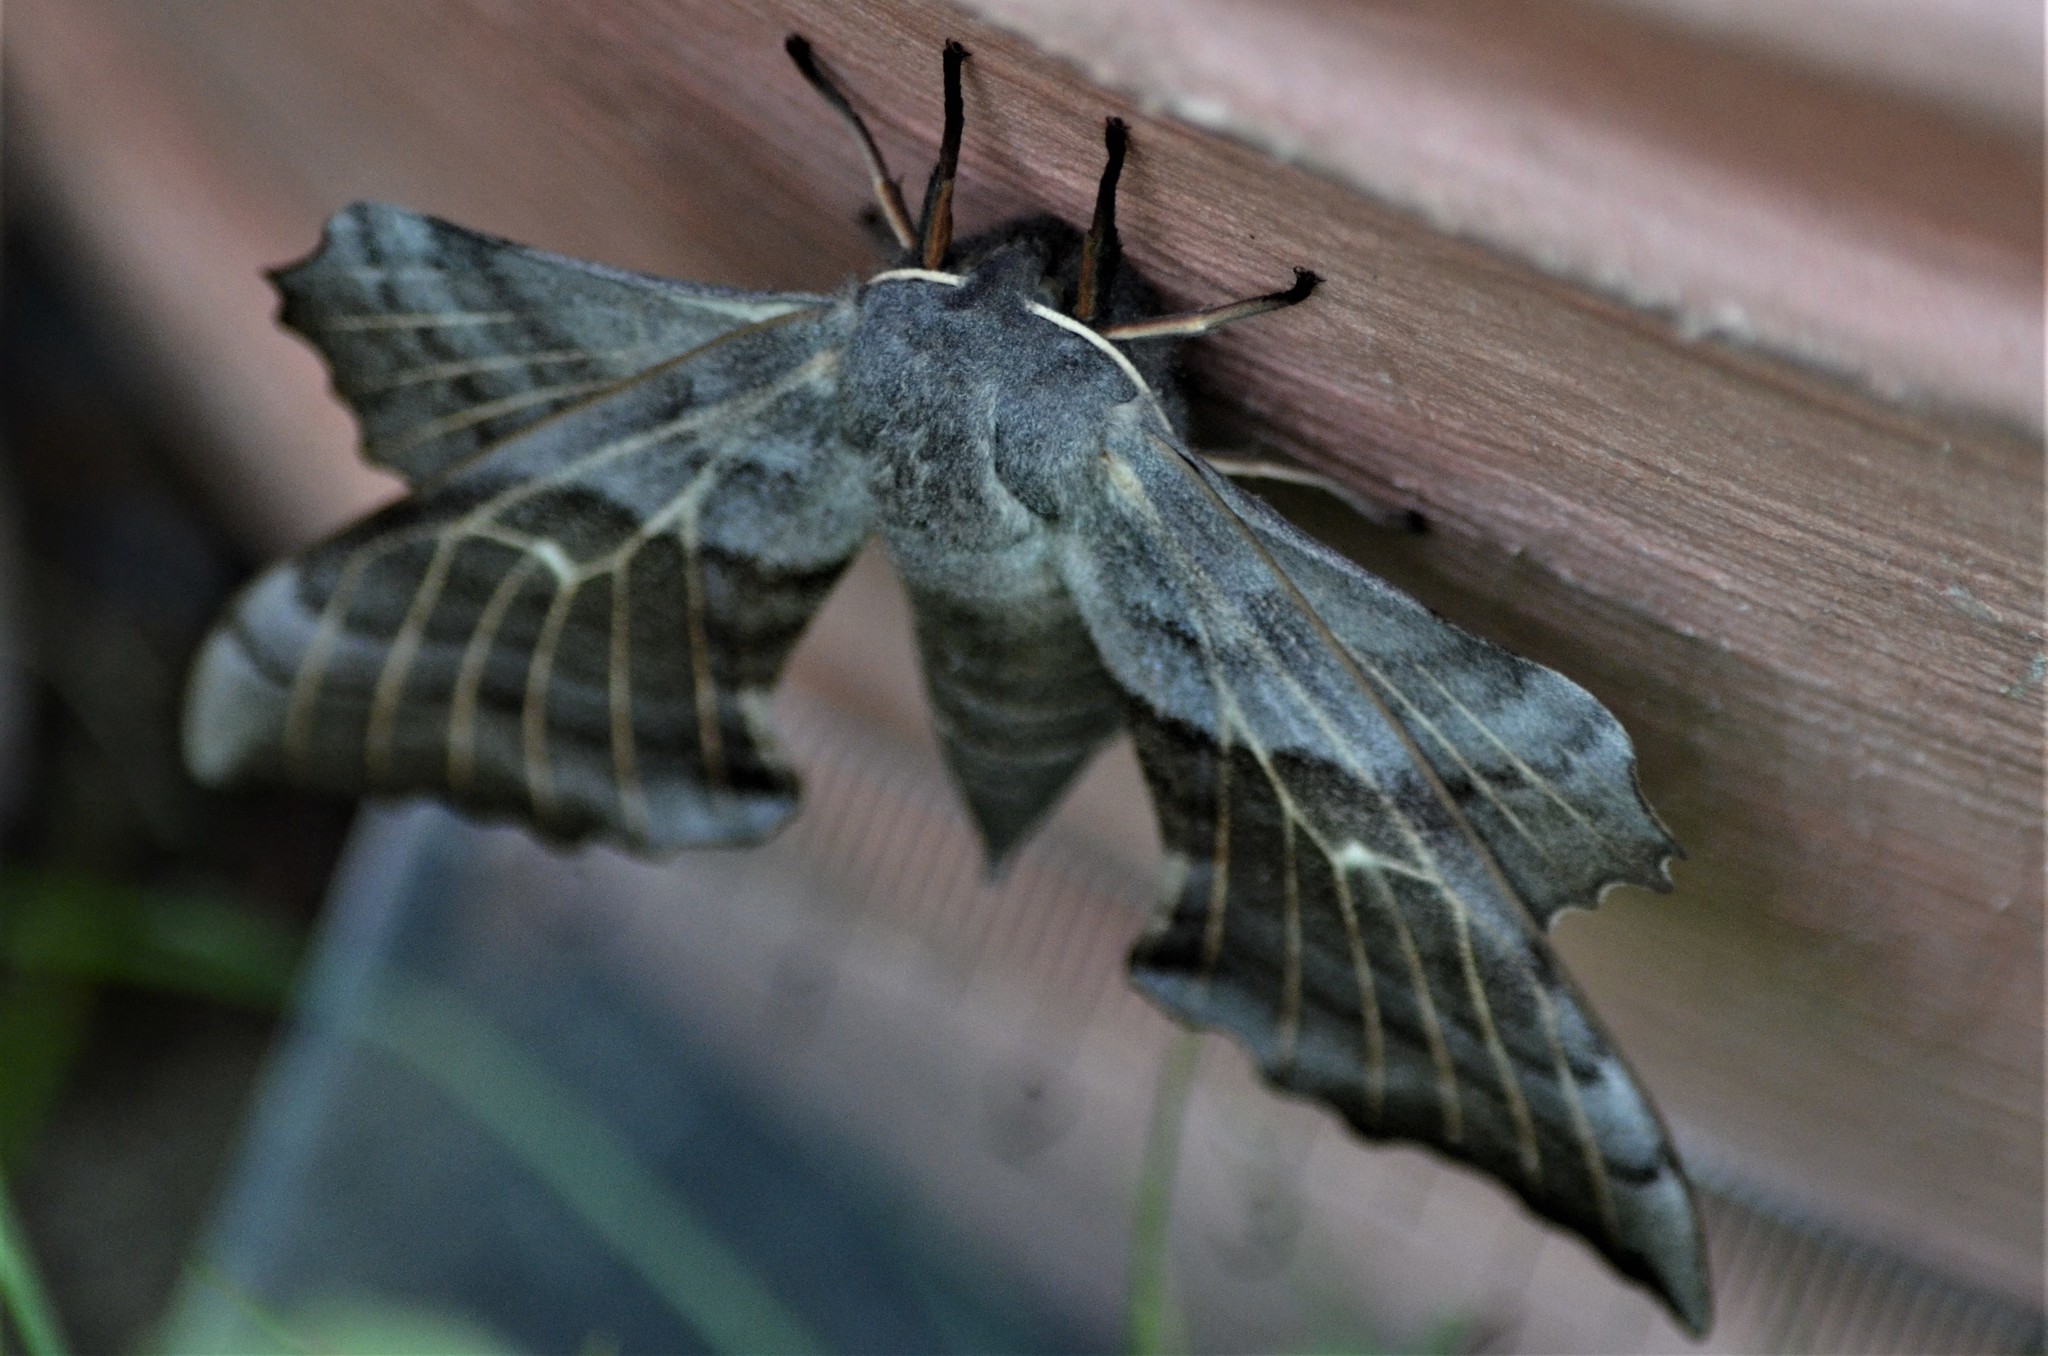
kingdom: Animalia
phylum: Arthropoda
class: Insecta
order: Lepidoptera
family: Sphingidae
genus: Laothoe
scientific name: Laothoe populi
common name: Poplar hawk-moth
